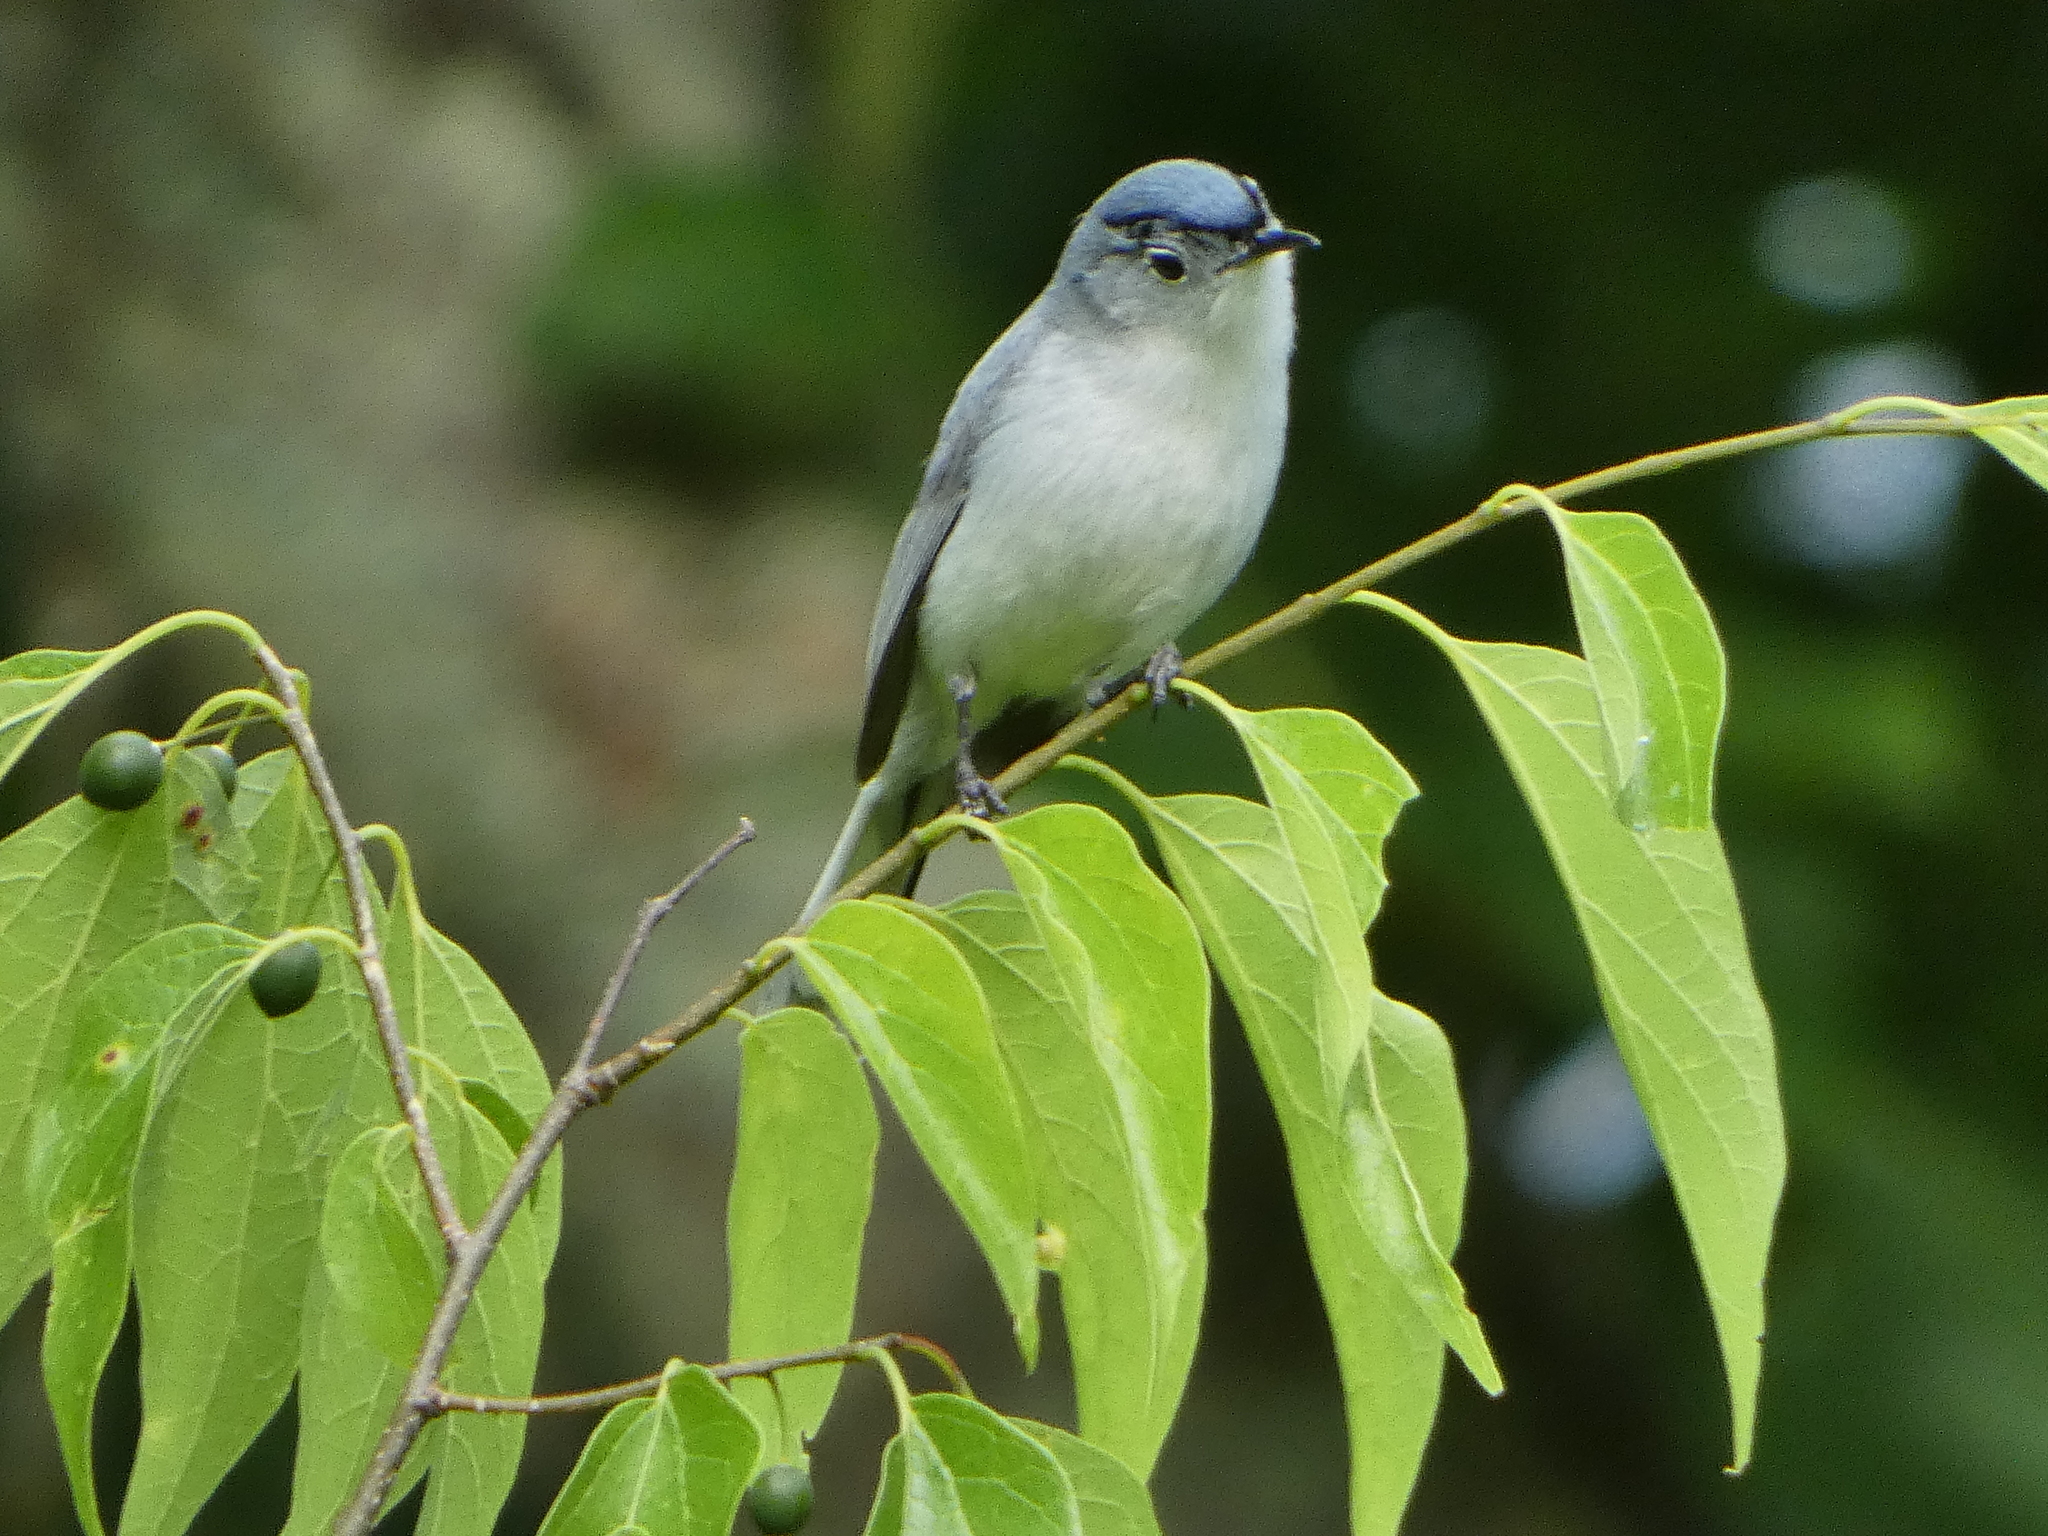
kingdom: Animalia
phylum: Chordata
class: Aves
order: Passeriformes
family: Polioptilidae
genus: Polioptila
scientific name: Polioptila caerulea
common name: Blue-gray gnatcatcher
